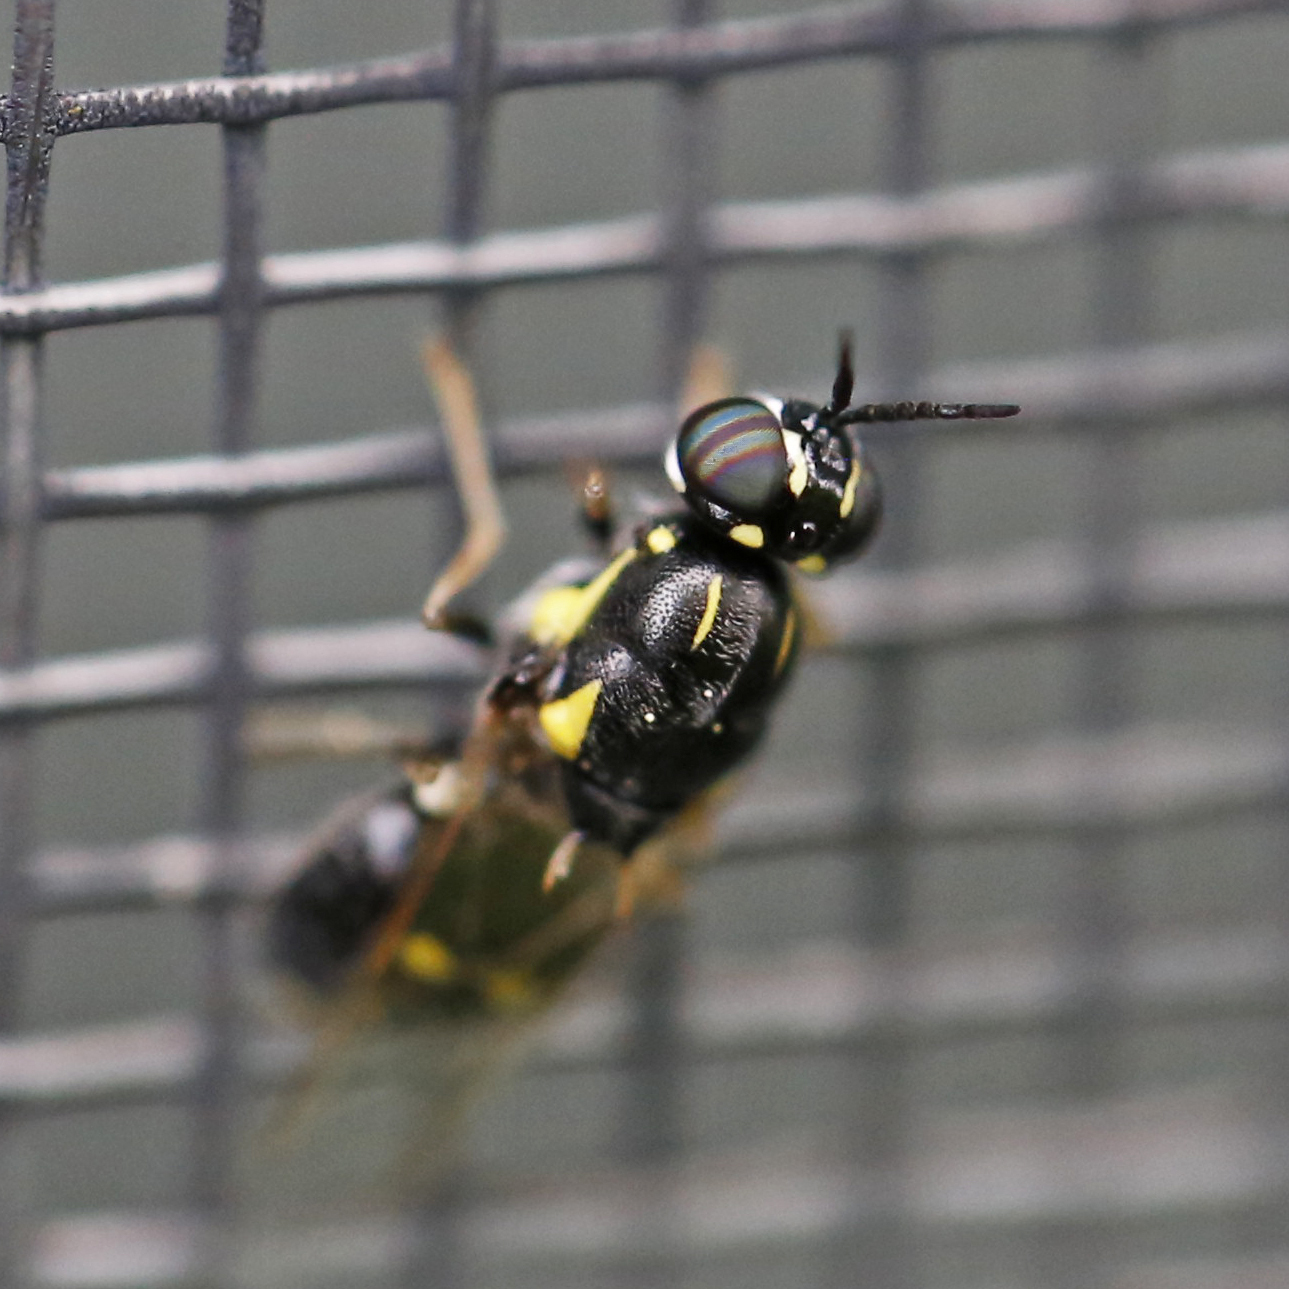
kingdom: Animalia
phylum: Arthropoda
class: Insecta
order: Diptera
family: Stratiomyidae
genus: Caloparyphus
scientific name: Caloparyphus tetraspilus
